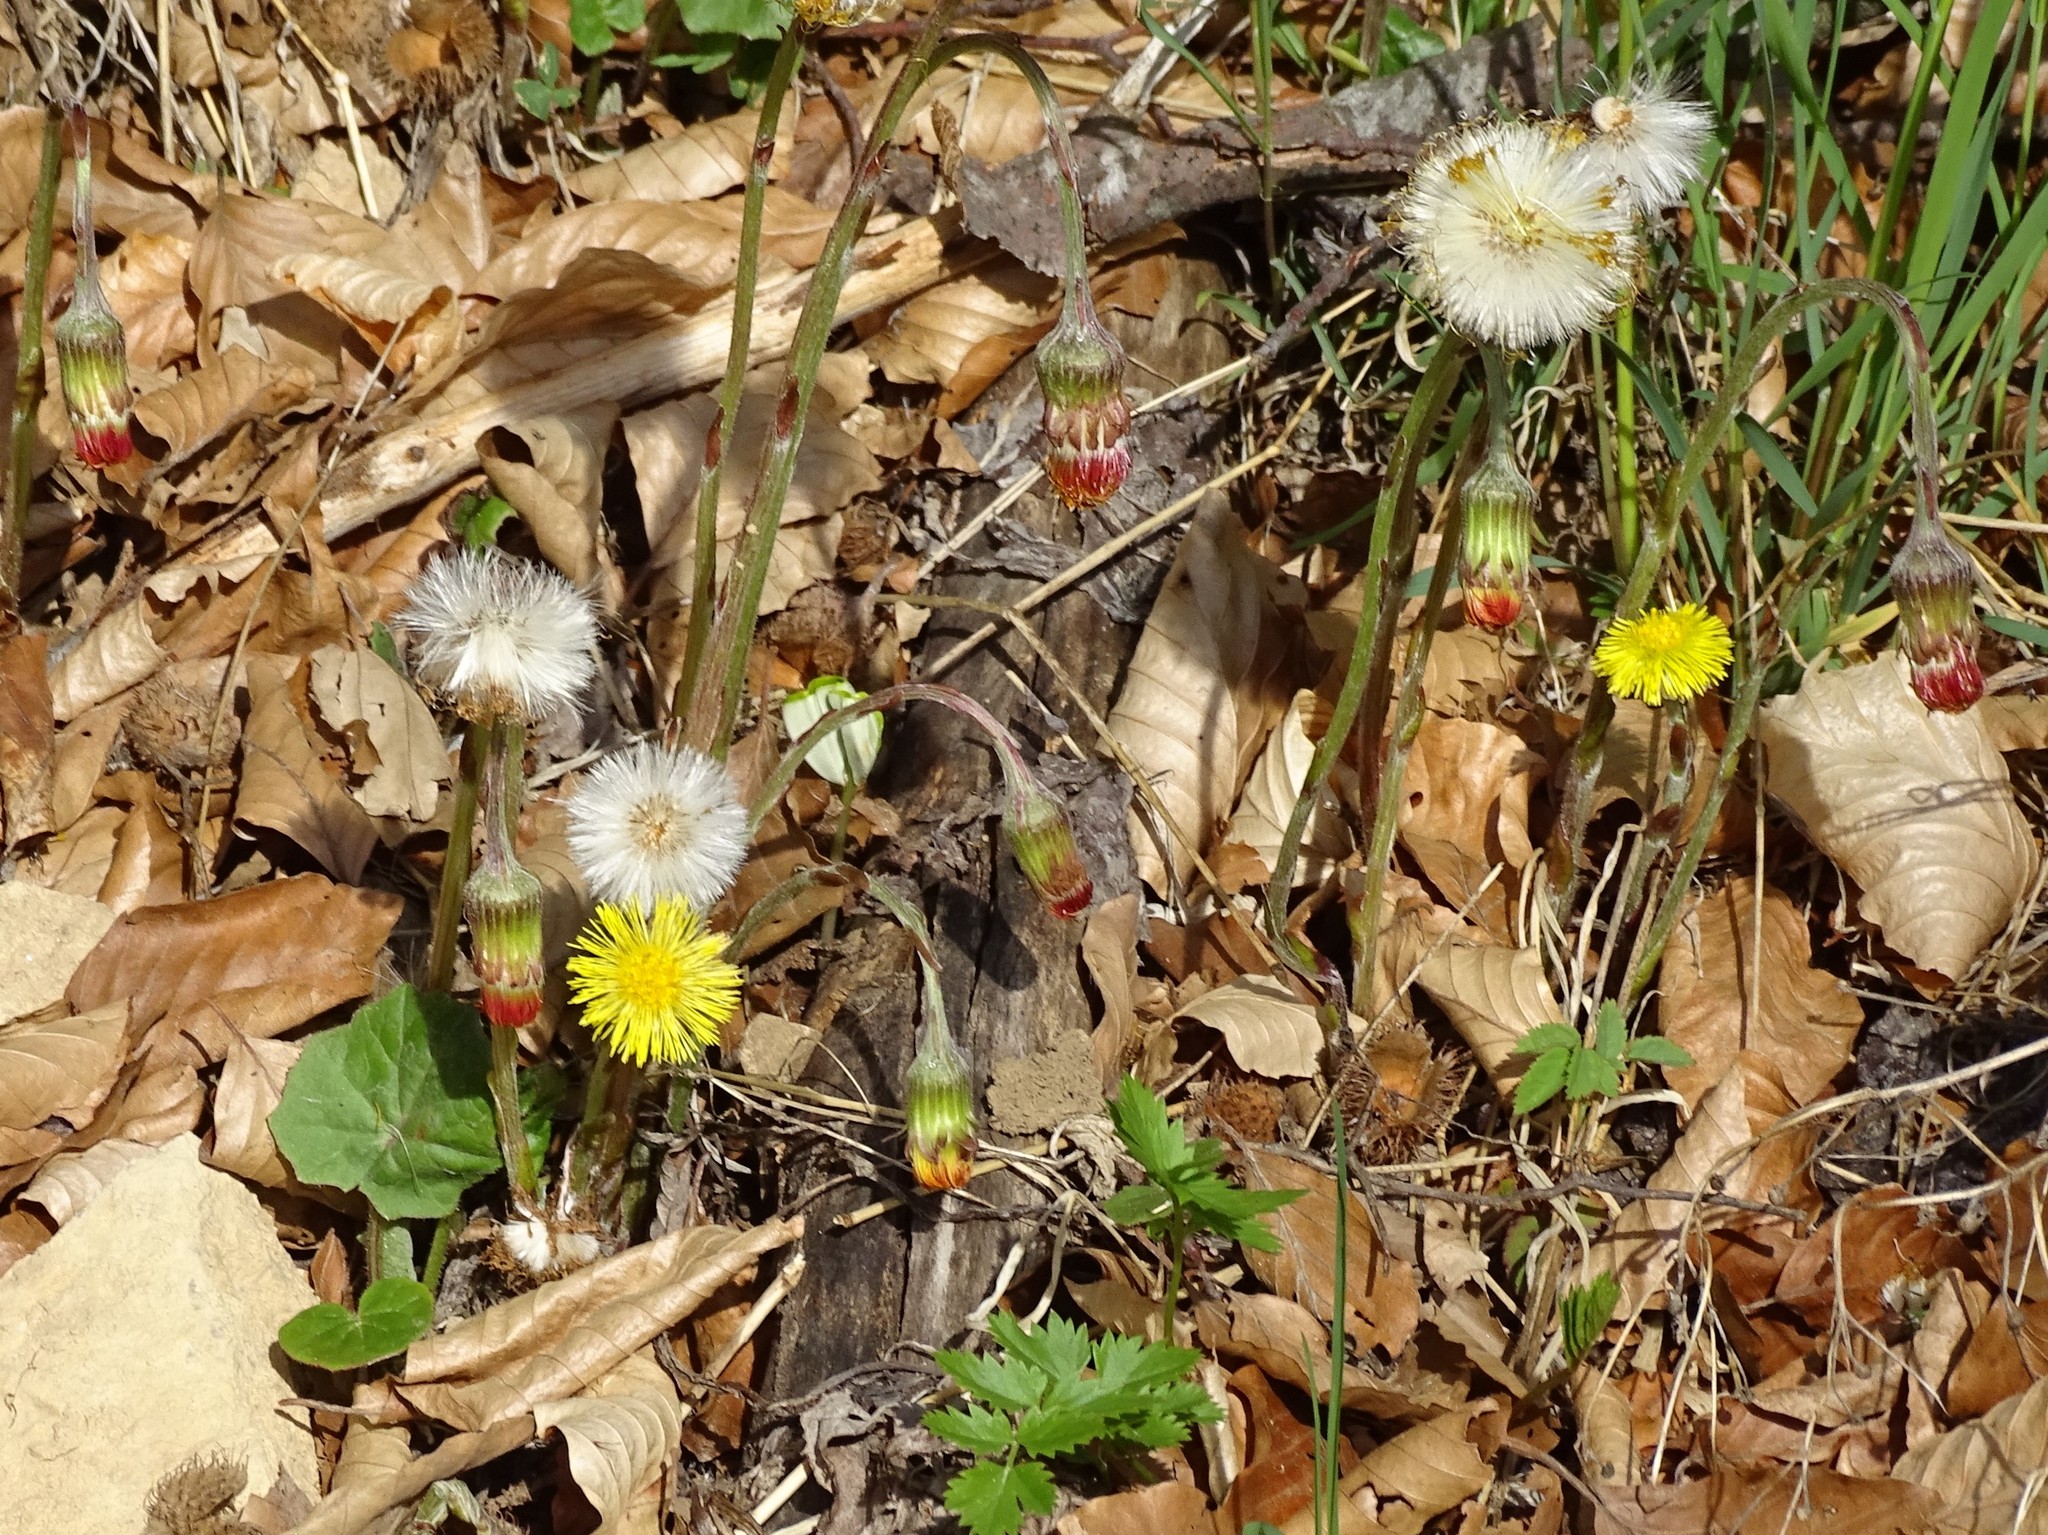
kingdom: Plantae
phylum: Tracheophyta
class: Magnoliopsida
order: Asterales
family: Asteraceae
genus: Tussilago
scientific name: Tussilago farfara
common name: Coltsfoot
